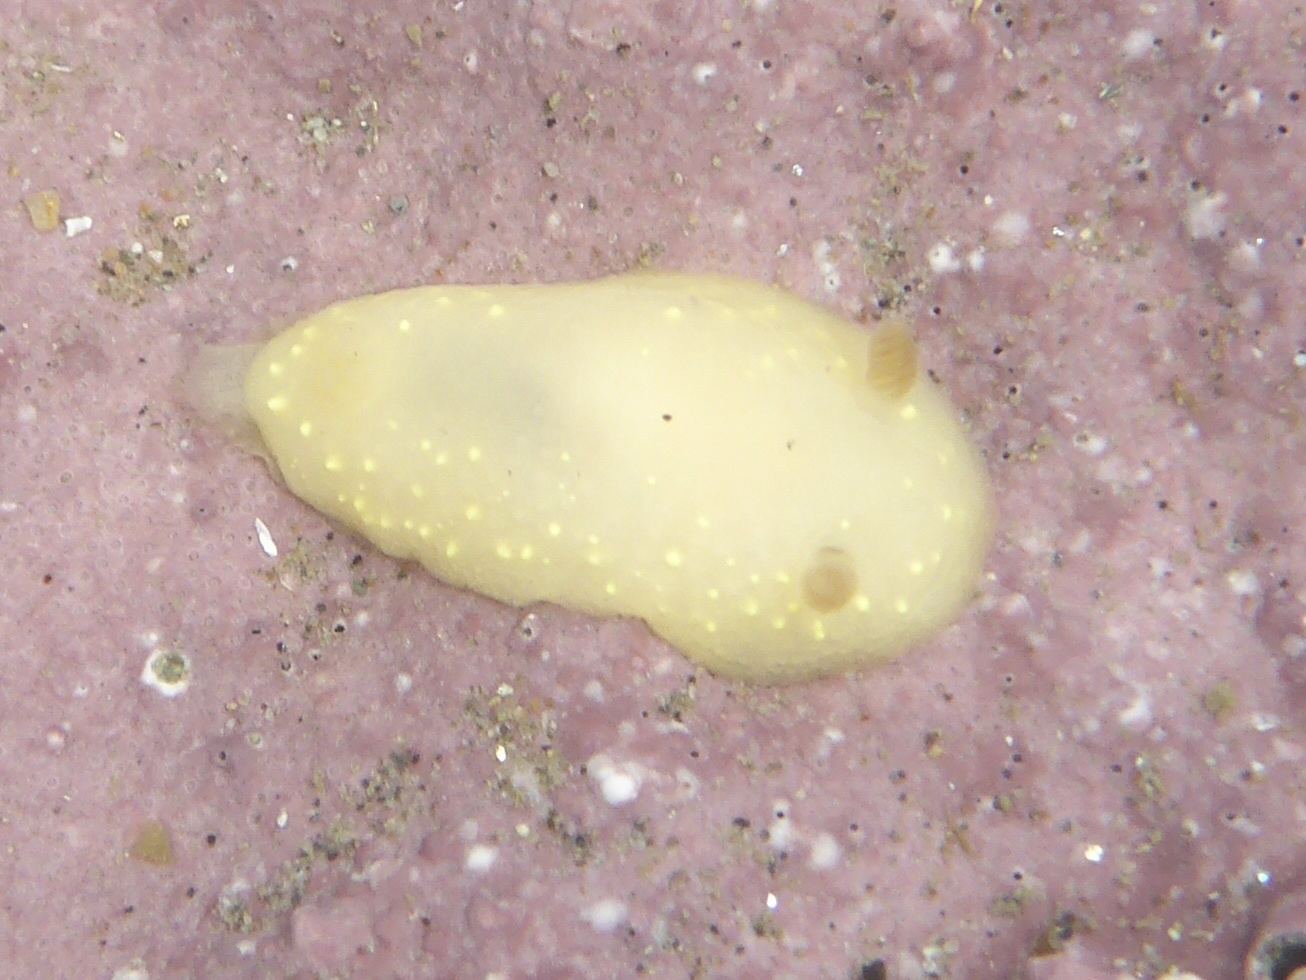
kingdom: Animalia
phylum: Mollusca
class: Gastropoda
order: Nudibranchia
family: Cadlinidae
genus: Cadlina
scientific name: Cadlina modesta
